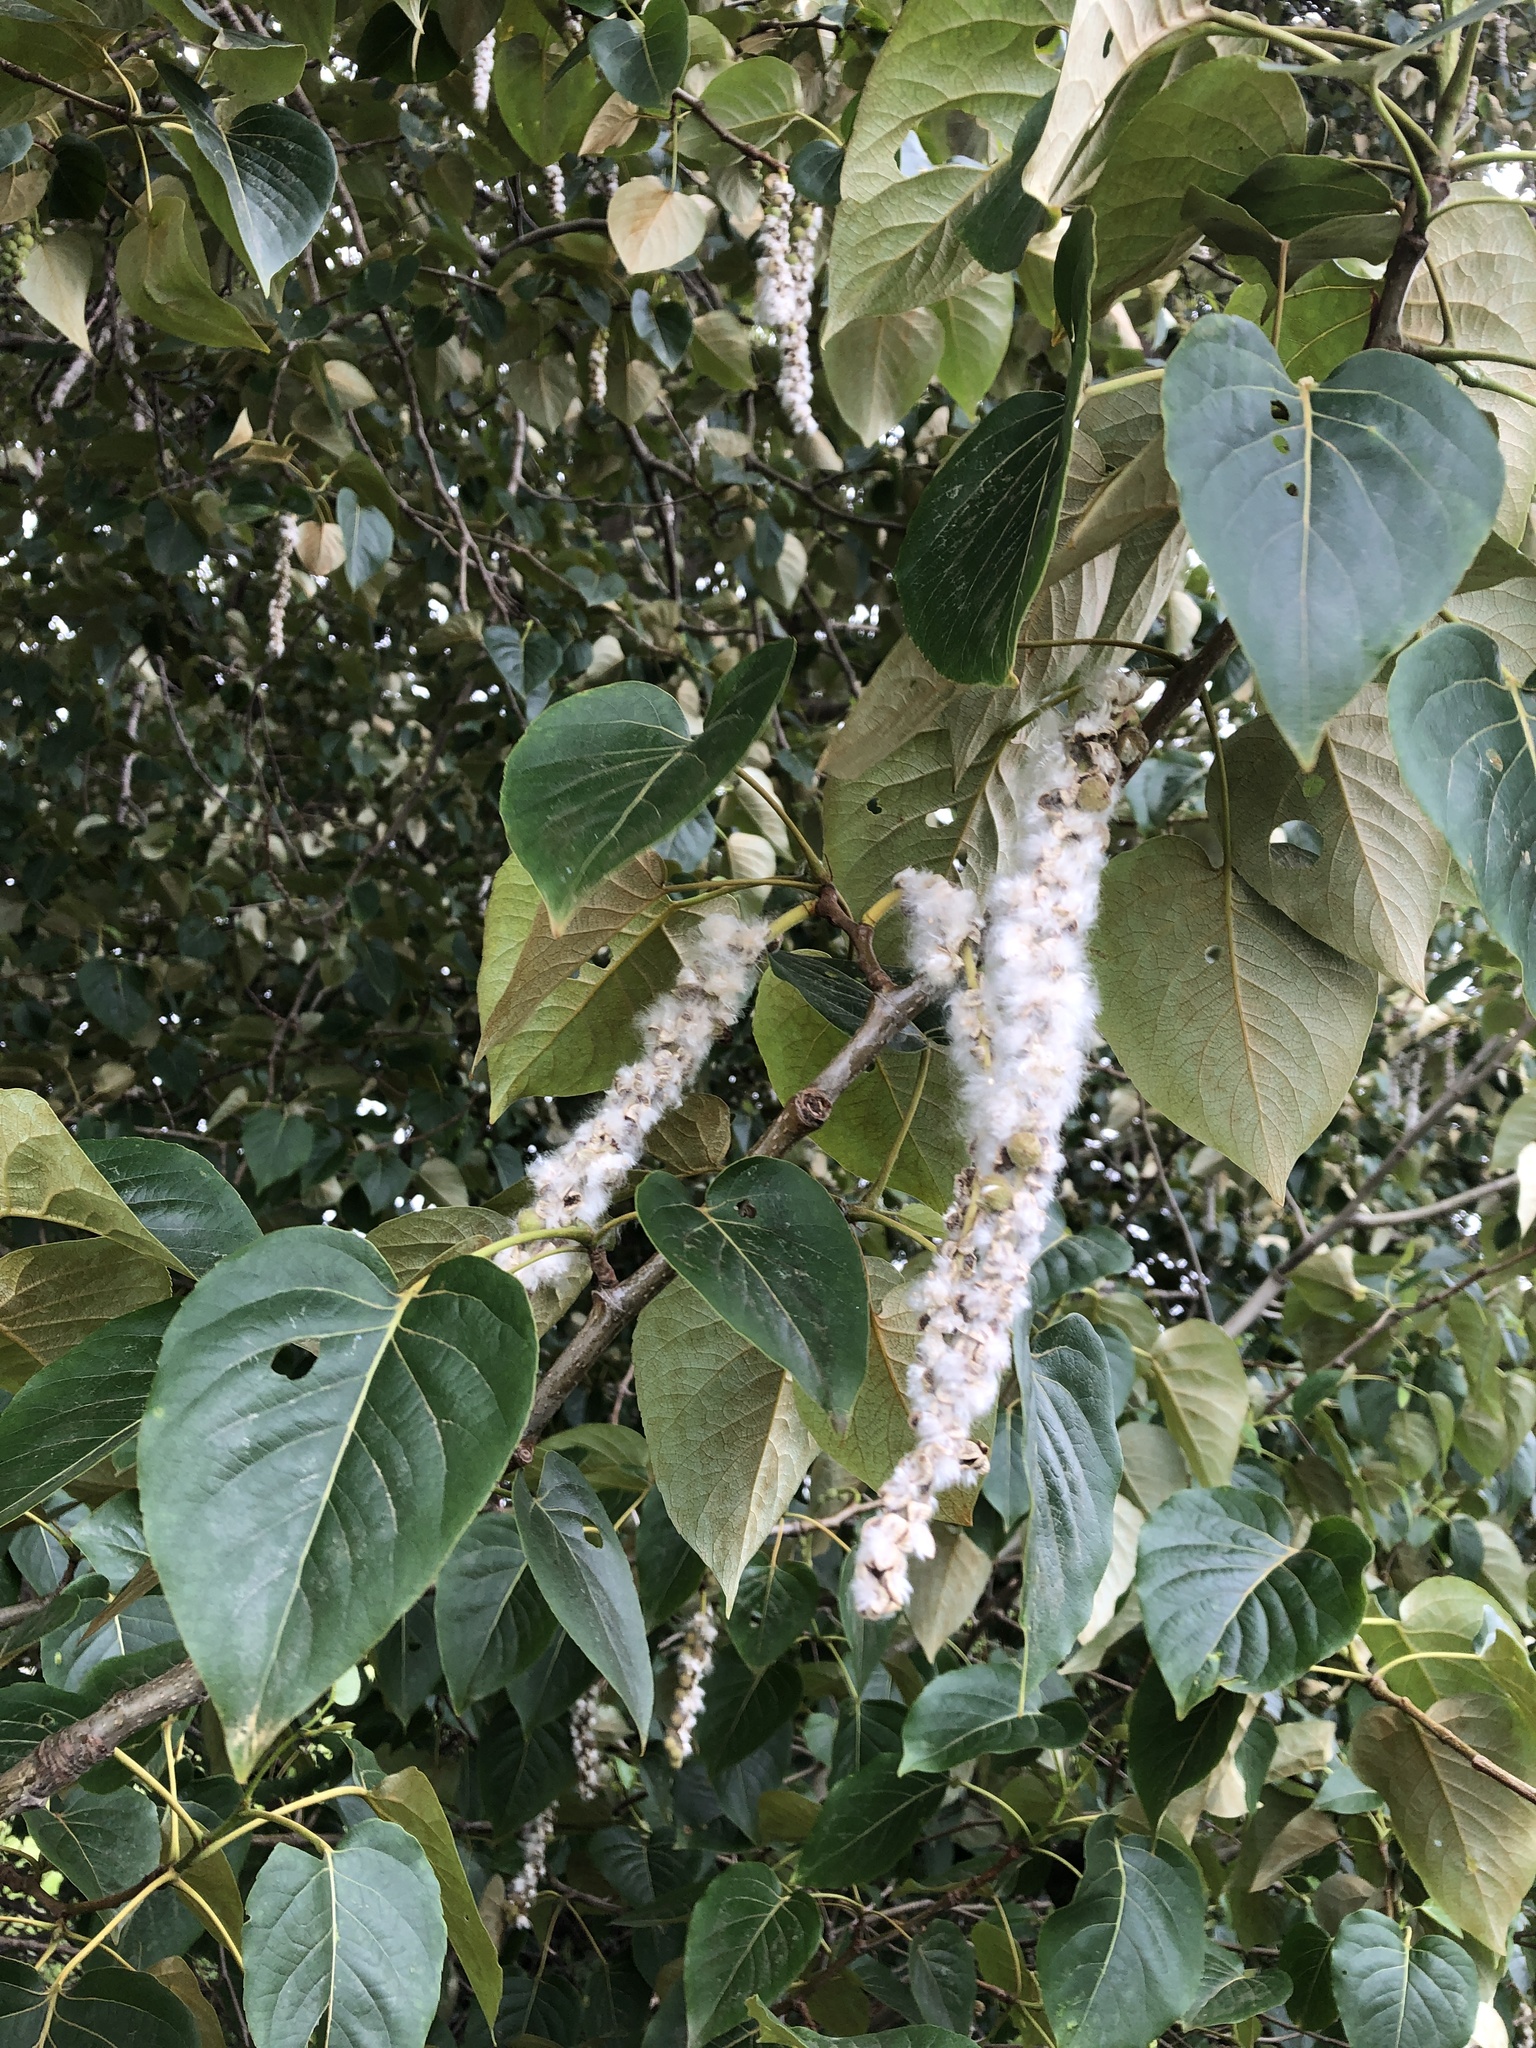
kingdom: Plantae
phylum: Tracheophyta
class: Magnoliopsida
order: Malpighiales
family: Salicaceae
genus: Populus
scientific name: Populus trichocarpa
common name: Black cottonwood
